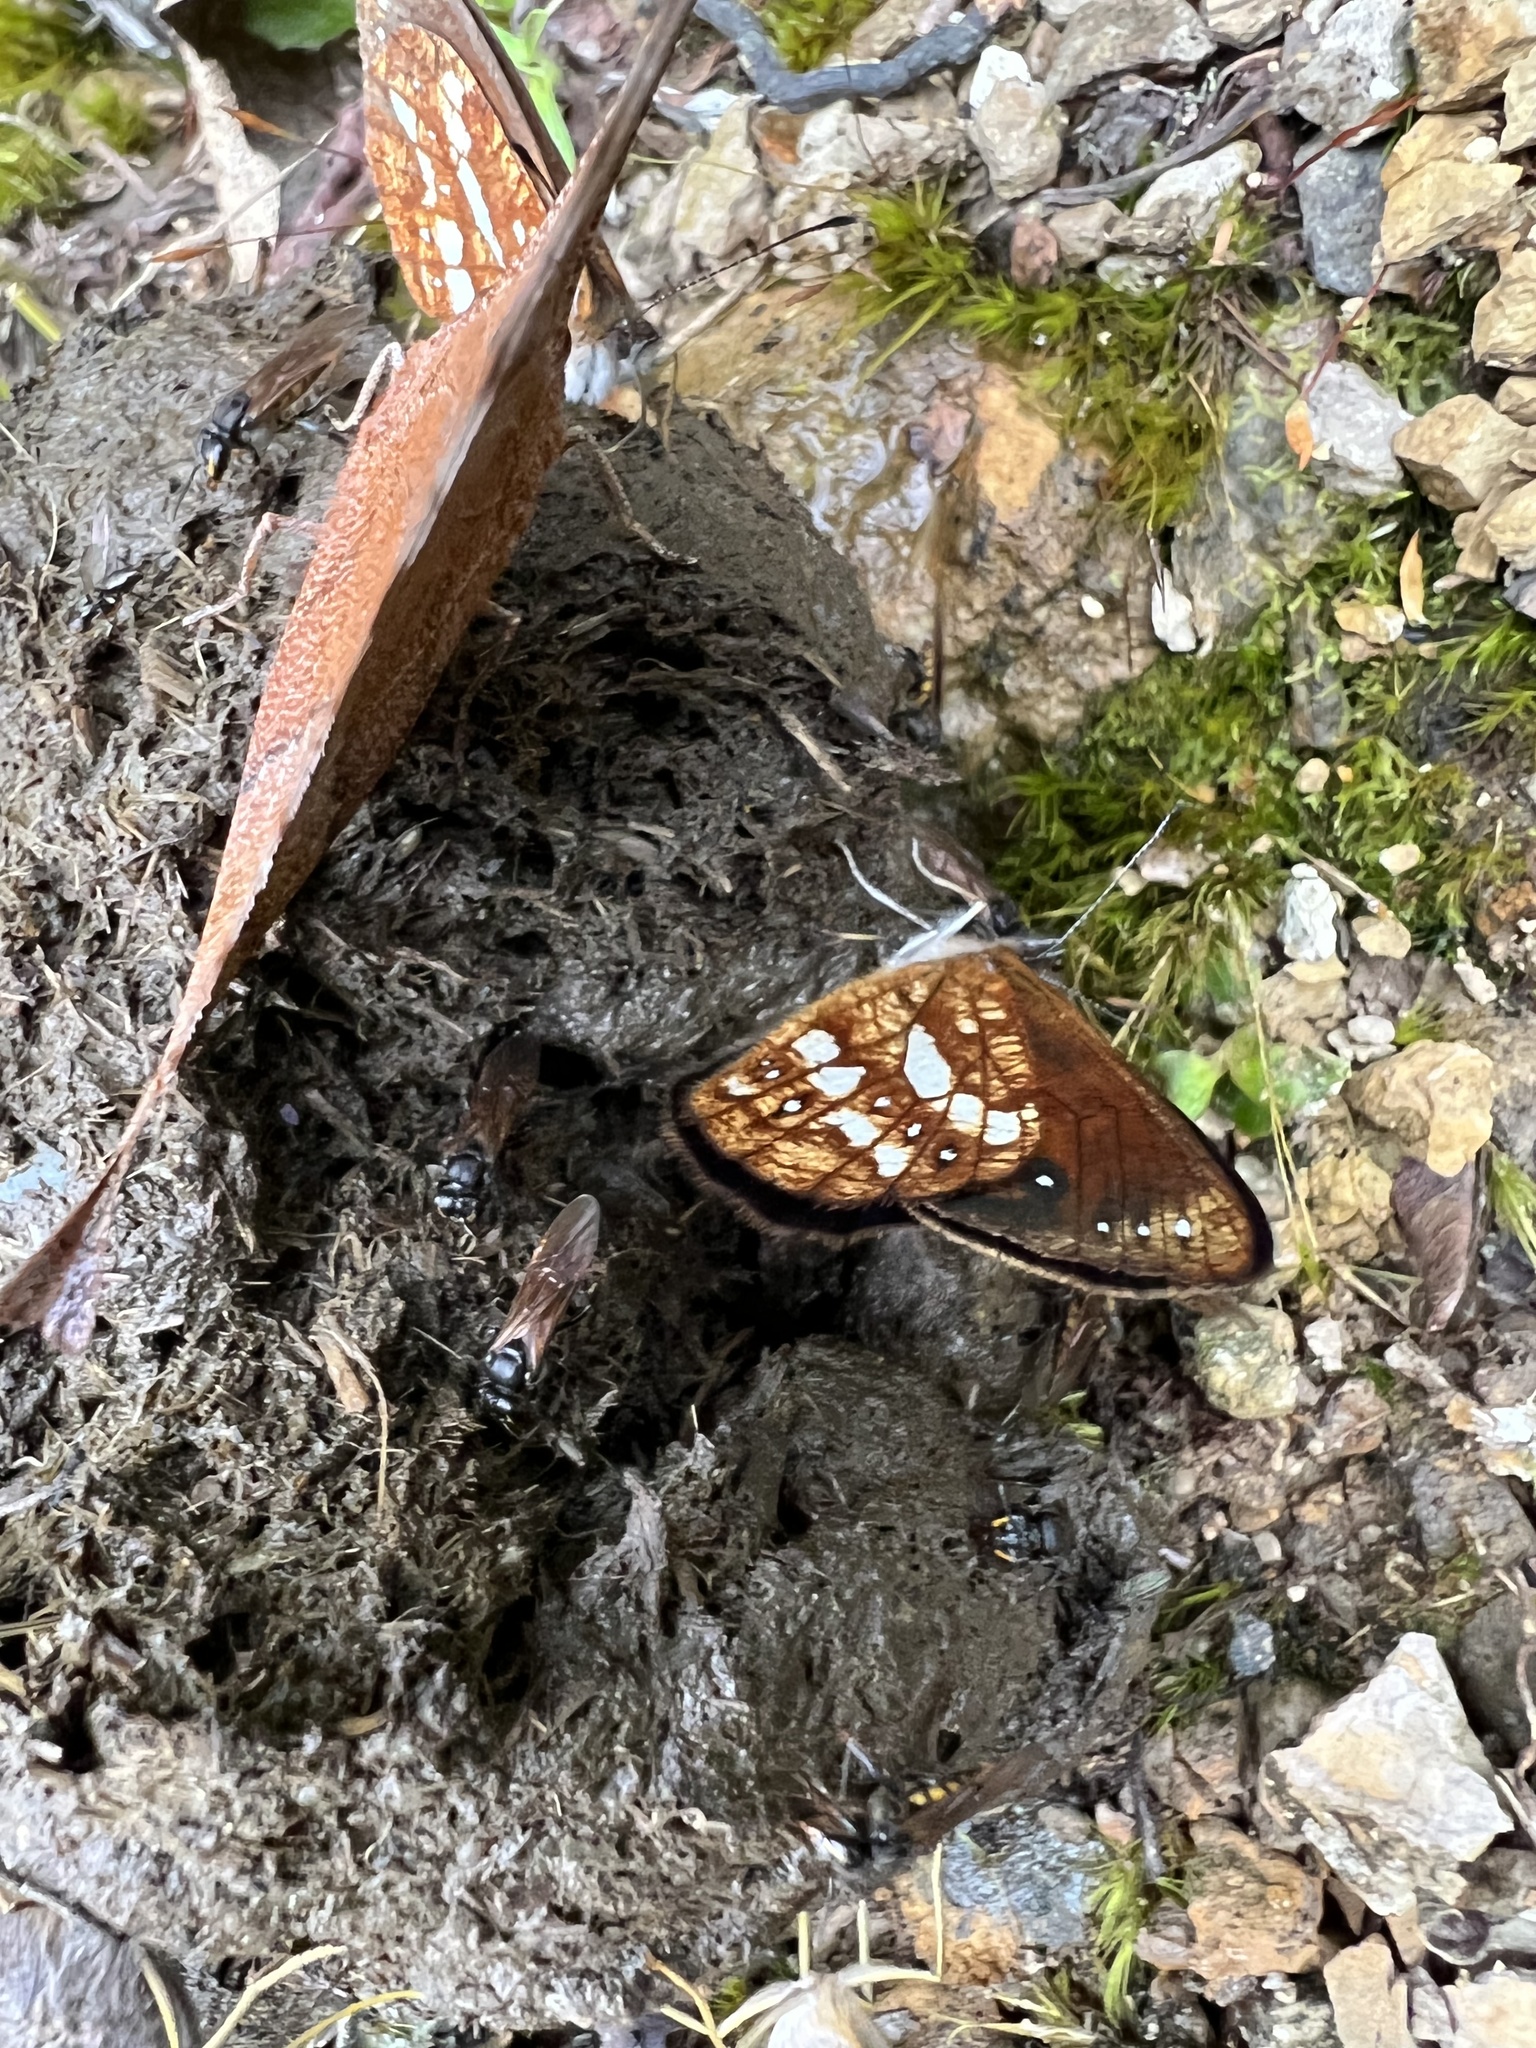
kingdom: Animalia
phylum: Arthropoda
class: Insecta
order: Lepidoptera
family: Nymphalidae
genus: Lymanopoda
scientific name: Lymanopoda labda
